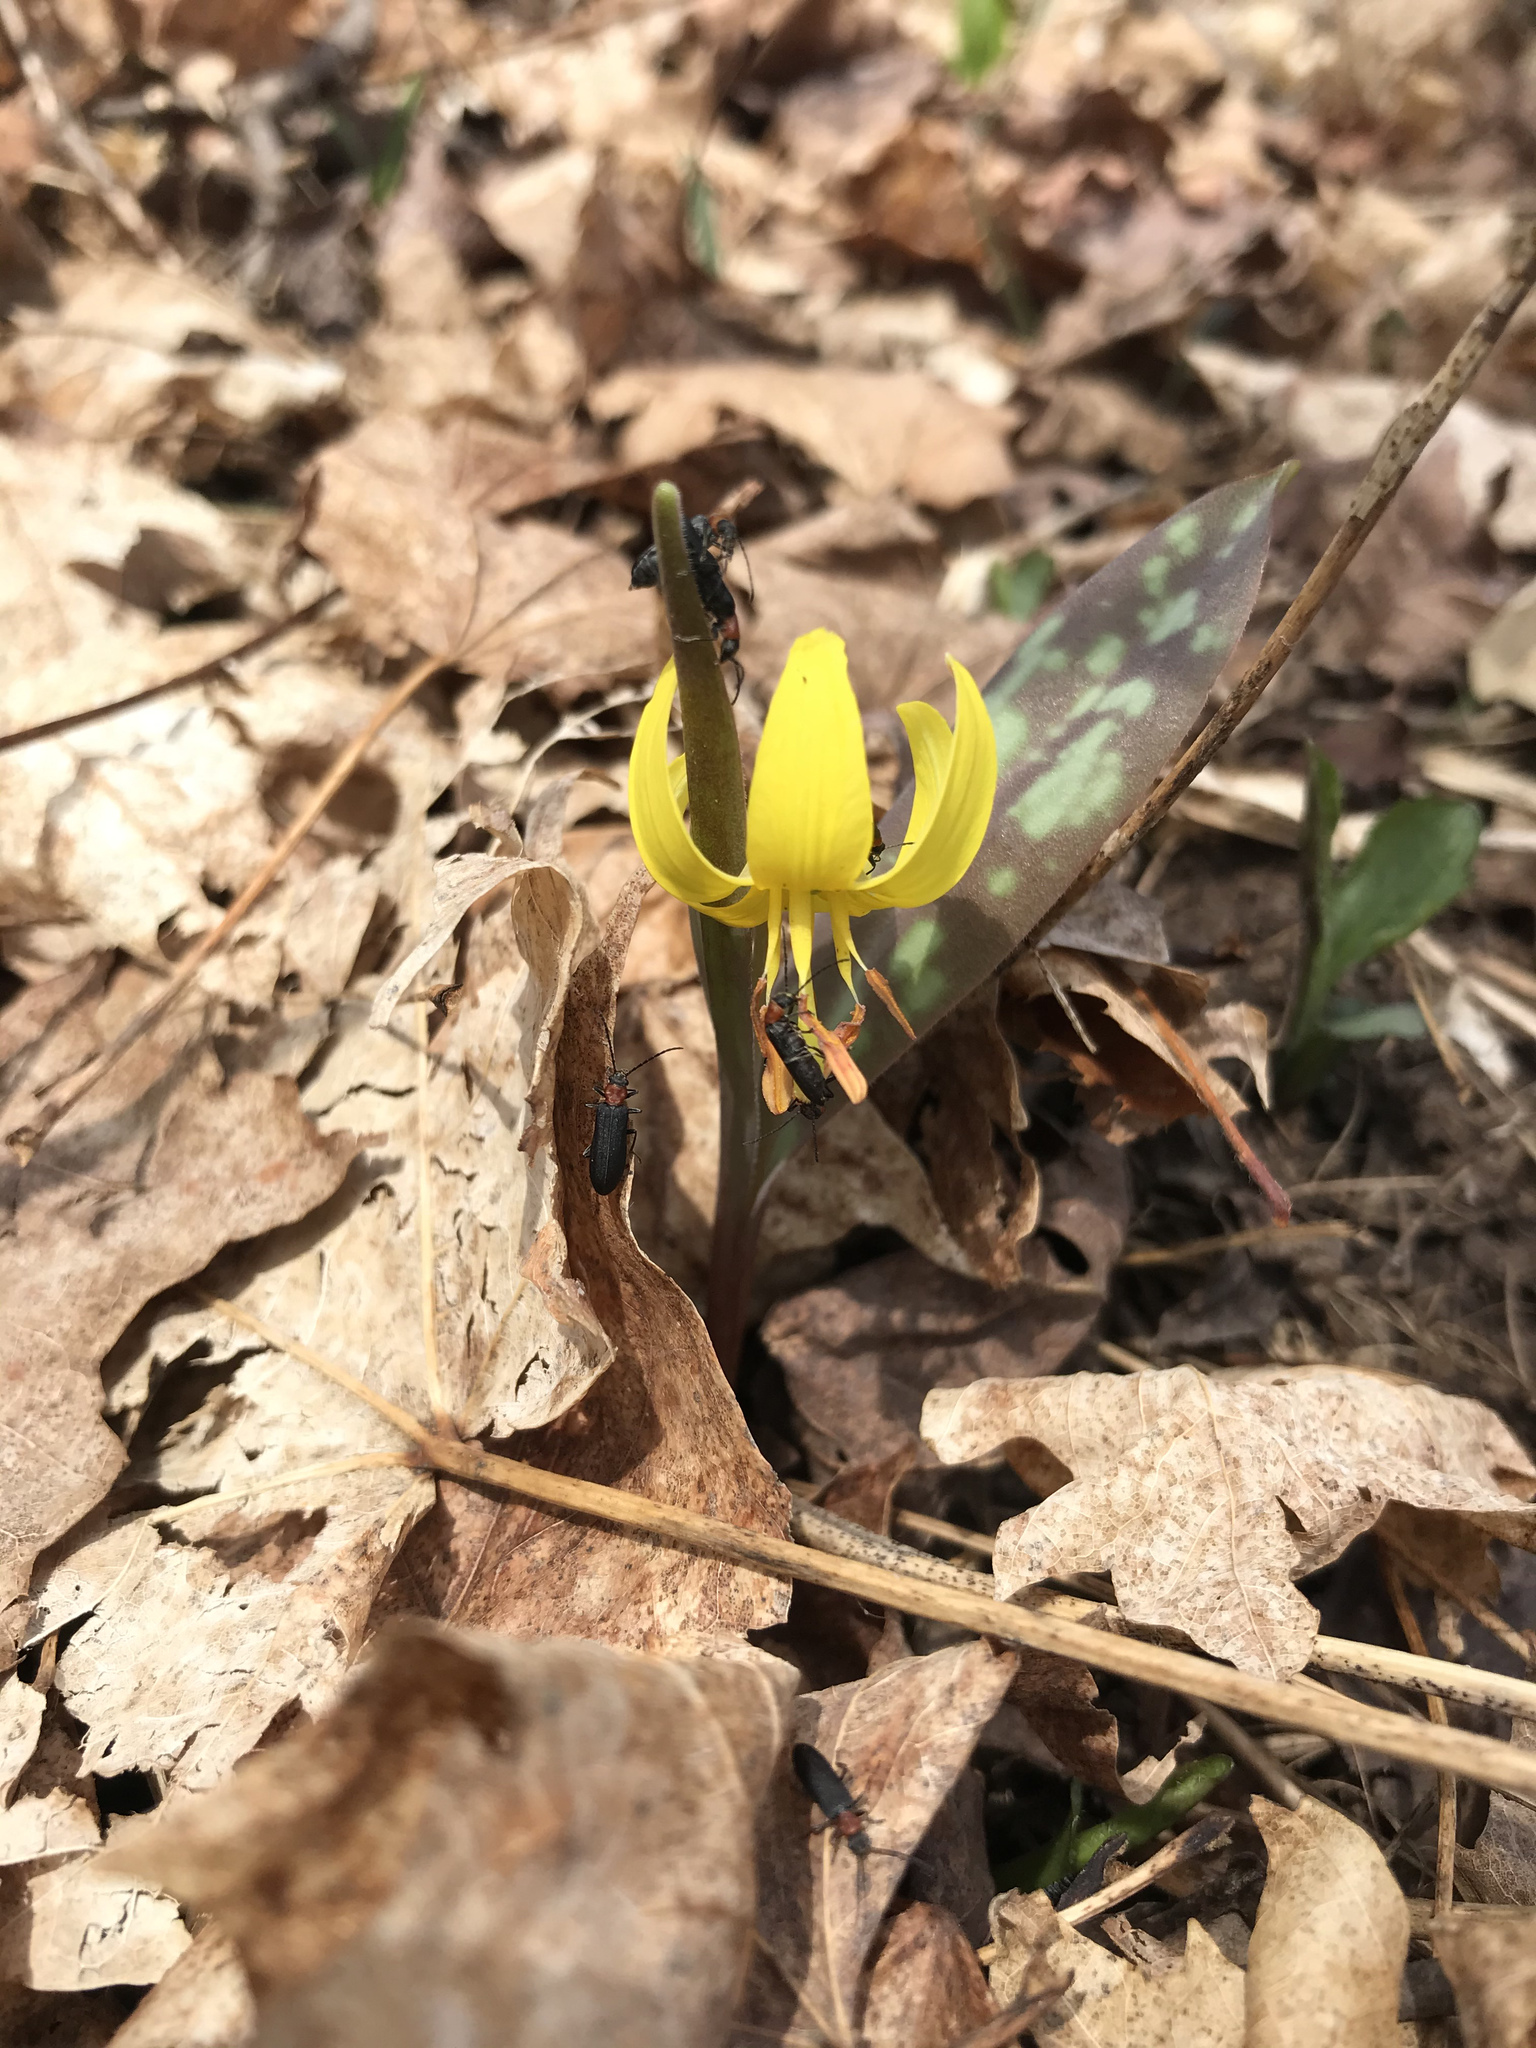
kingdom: Plantae
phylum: Tracheophyta
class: Liliopsida
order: Liliales
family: Liliaceae
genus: Erythronium
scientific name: Erythronium americanum
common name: Yellow adder's-tongue
